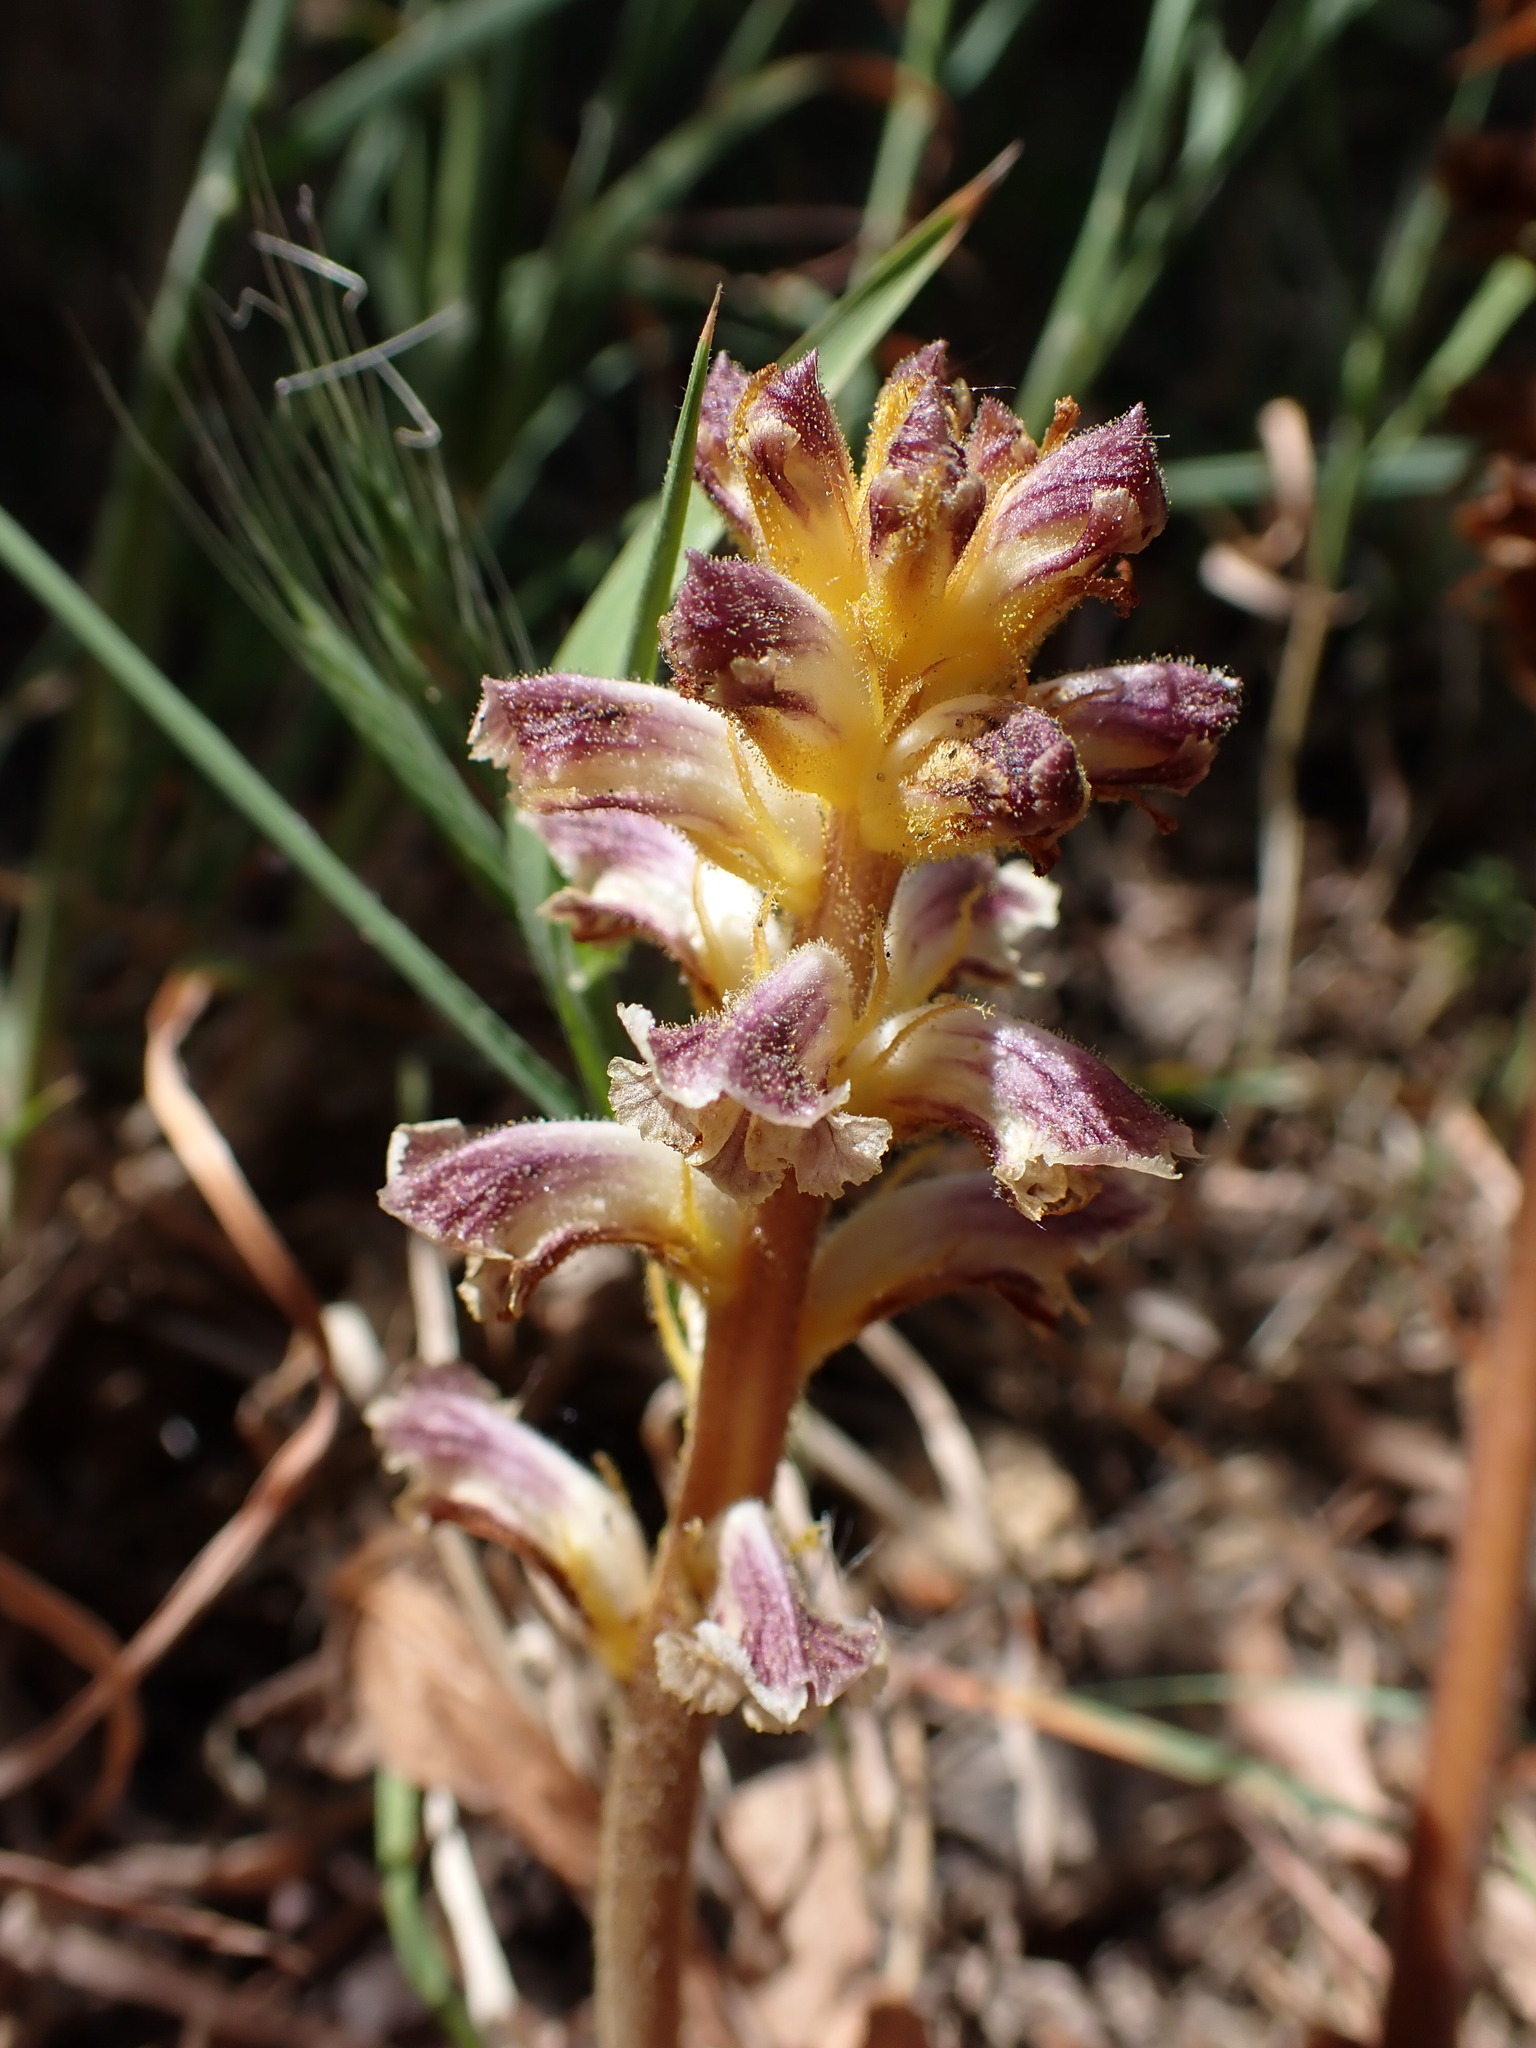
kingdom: Plantae
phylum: Tracheophyta
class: Magnoliopsida
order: Lamiales
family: Orobanchaceae
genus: Orobanche
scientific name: Orobanche minor
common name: Common broomrape
